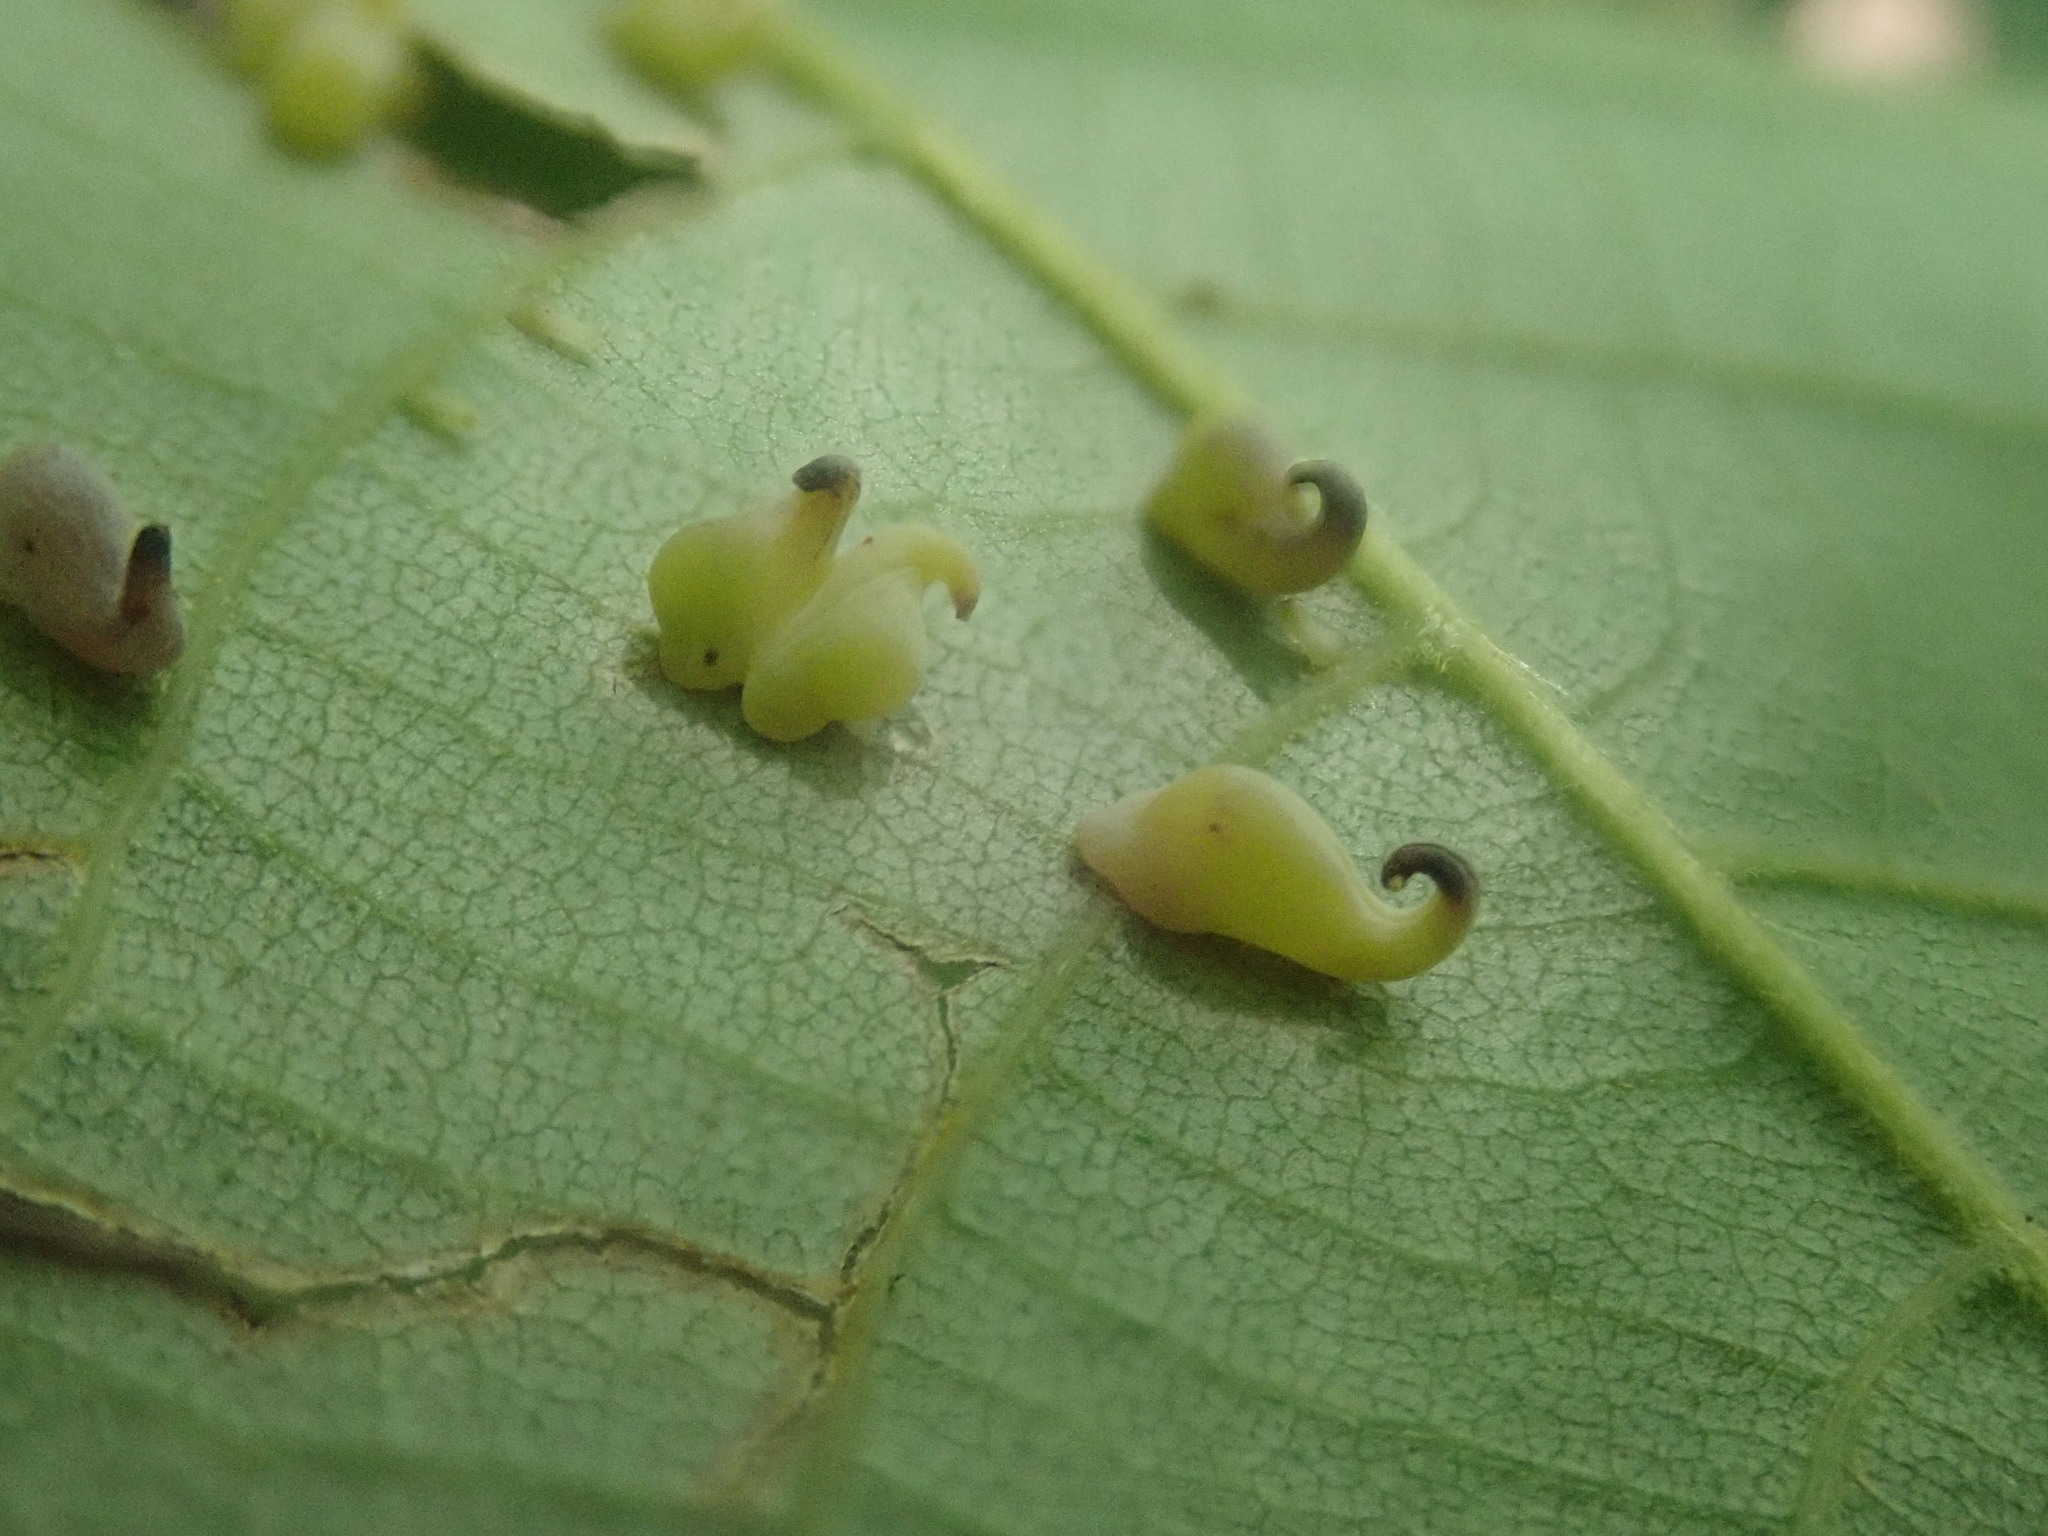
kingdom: Animalia
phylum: Arthropoda
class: Insecta
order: Diptera
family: Cecidomyiidae
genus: Caryomyia
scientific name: Caryomyia recurvata
